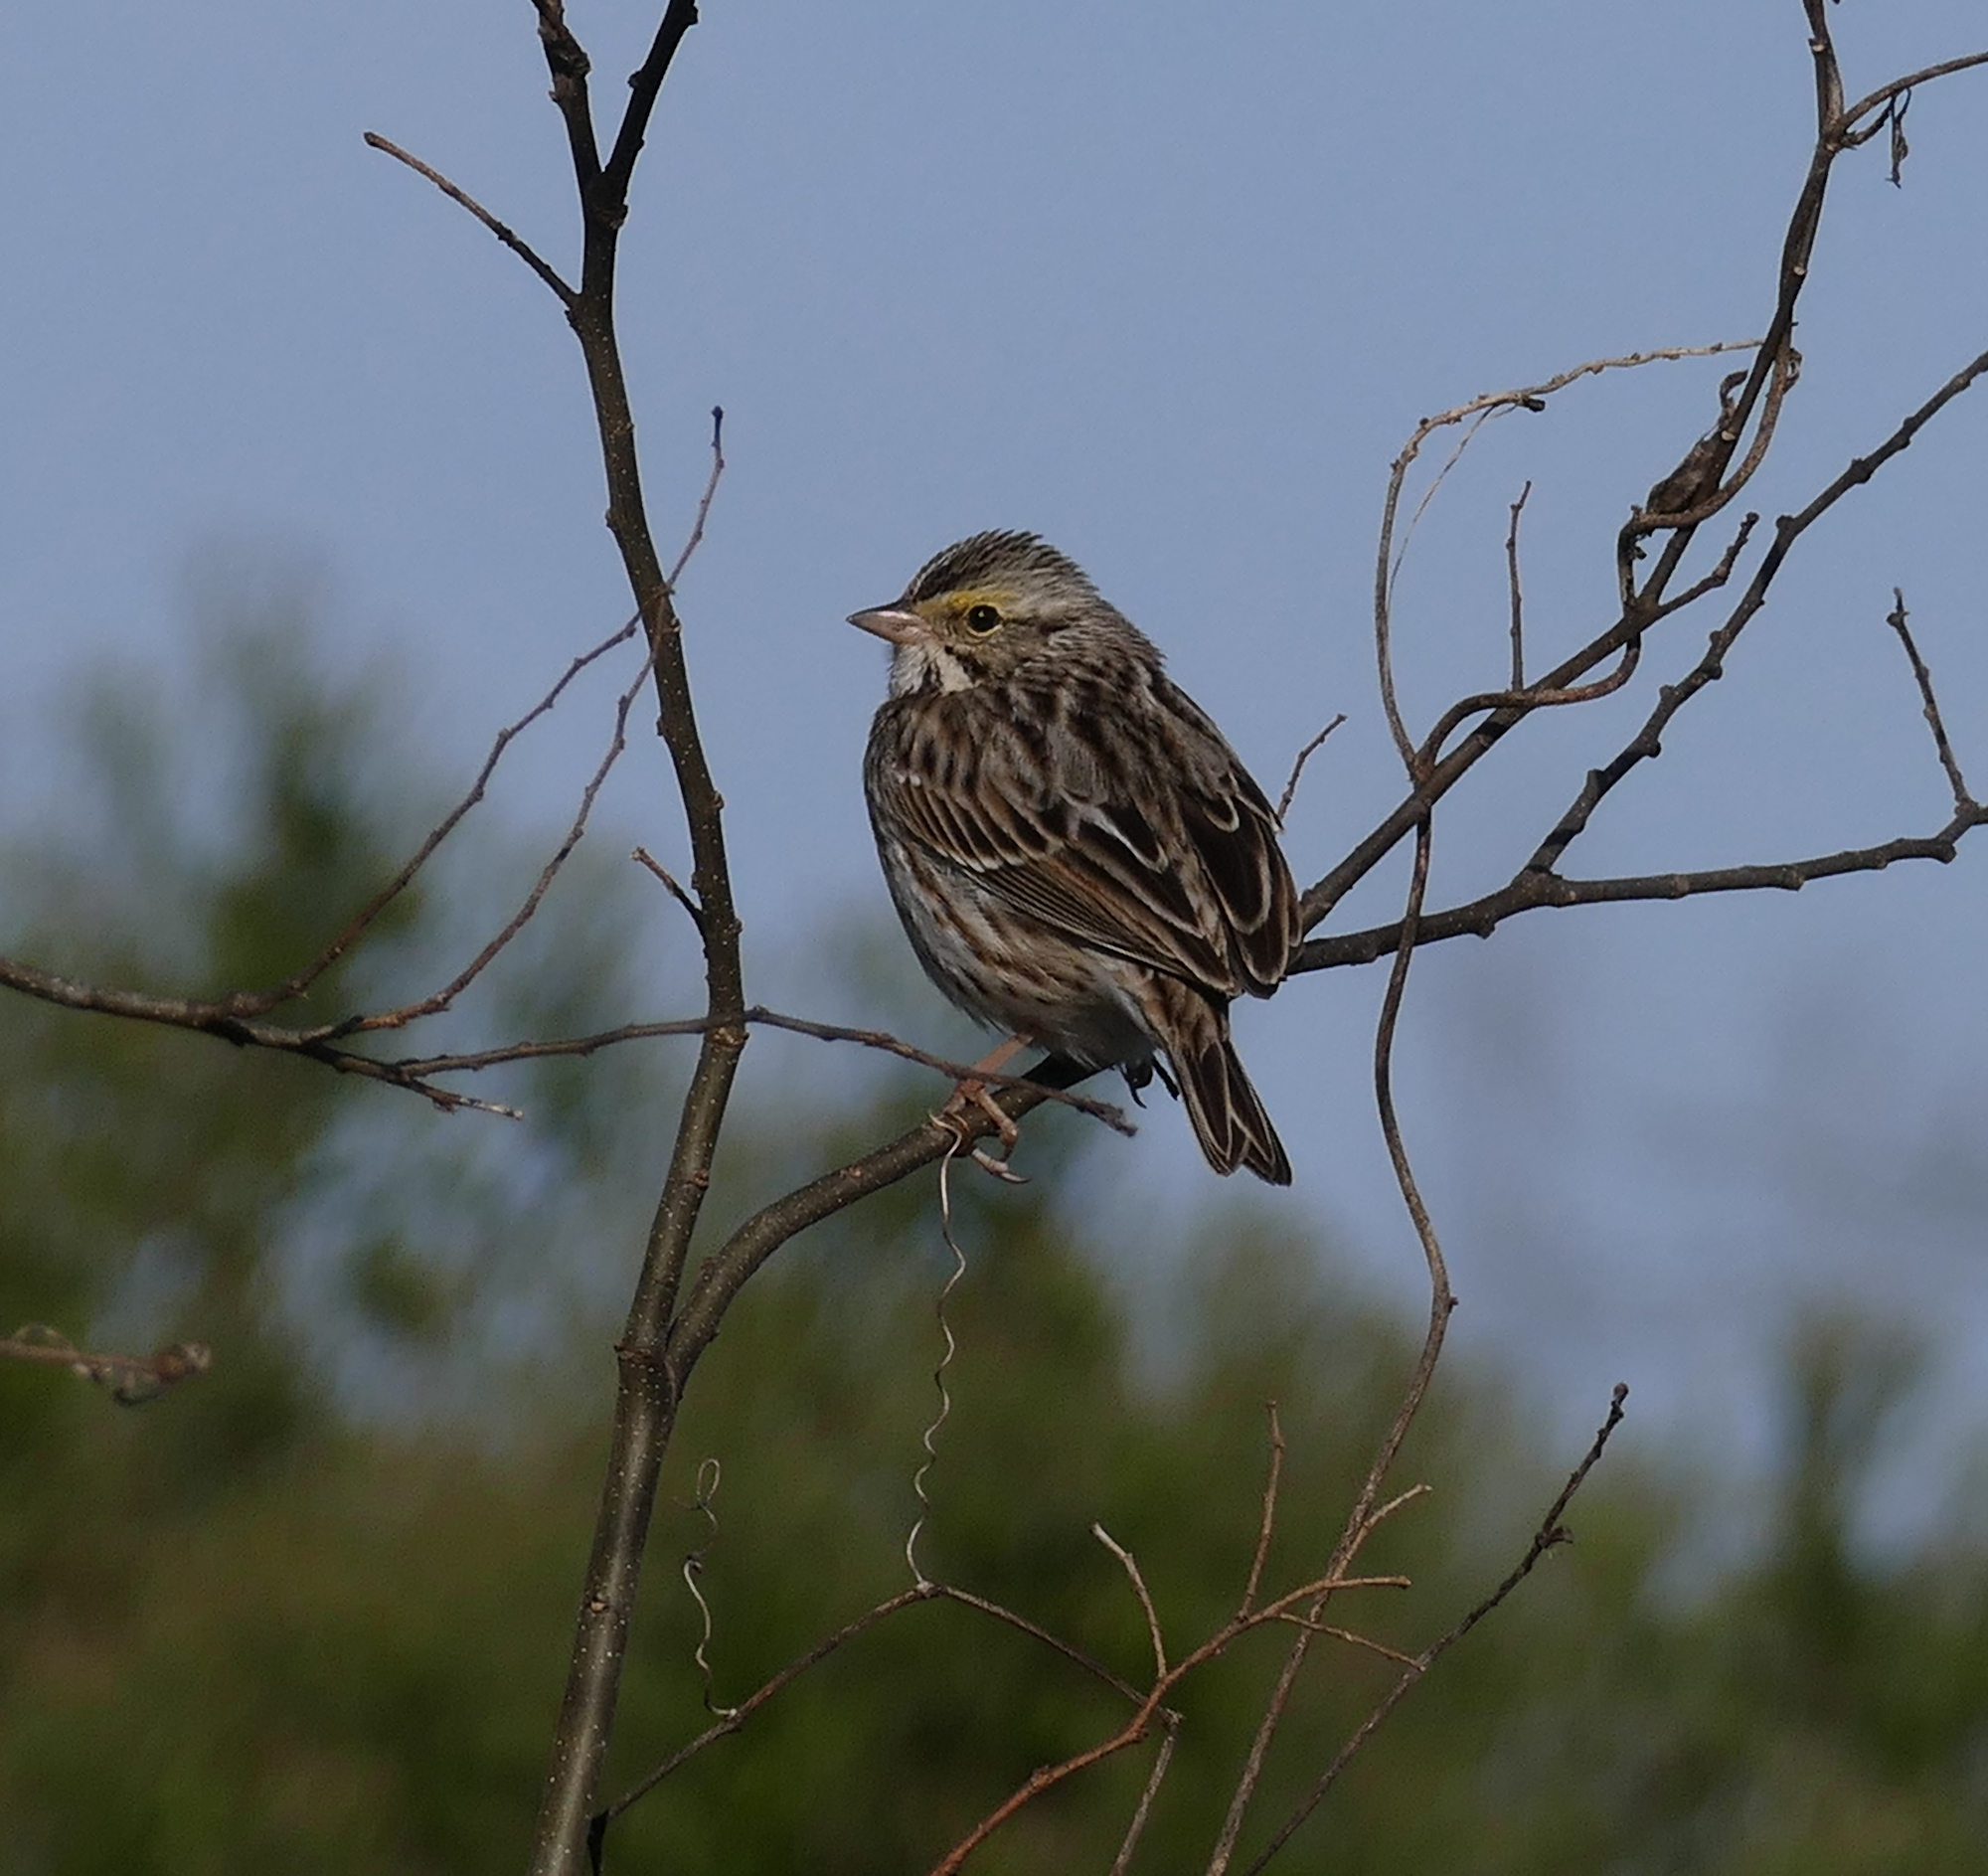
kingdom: Animalia
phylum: Chordata
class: Aves
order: Passeriformes
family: Passerellidae
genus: Passerculus
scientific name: Passerculus sandwichensis
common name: Savannah sparrow
